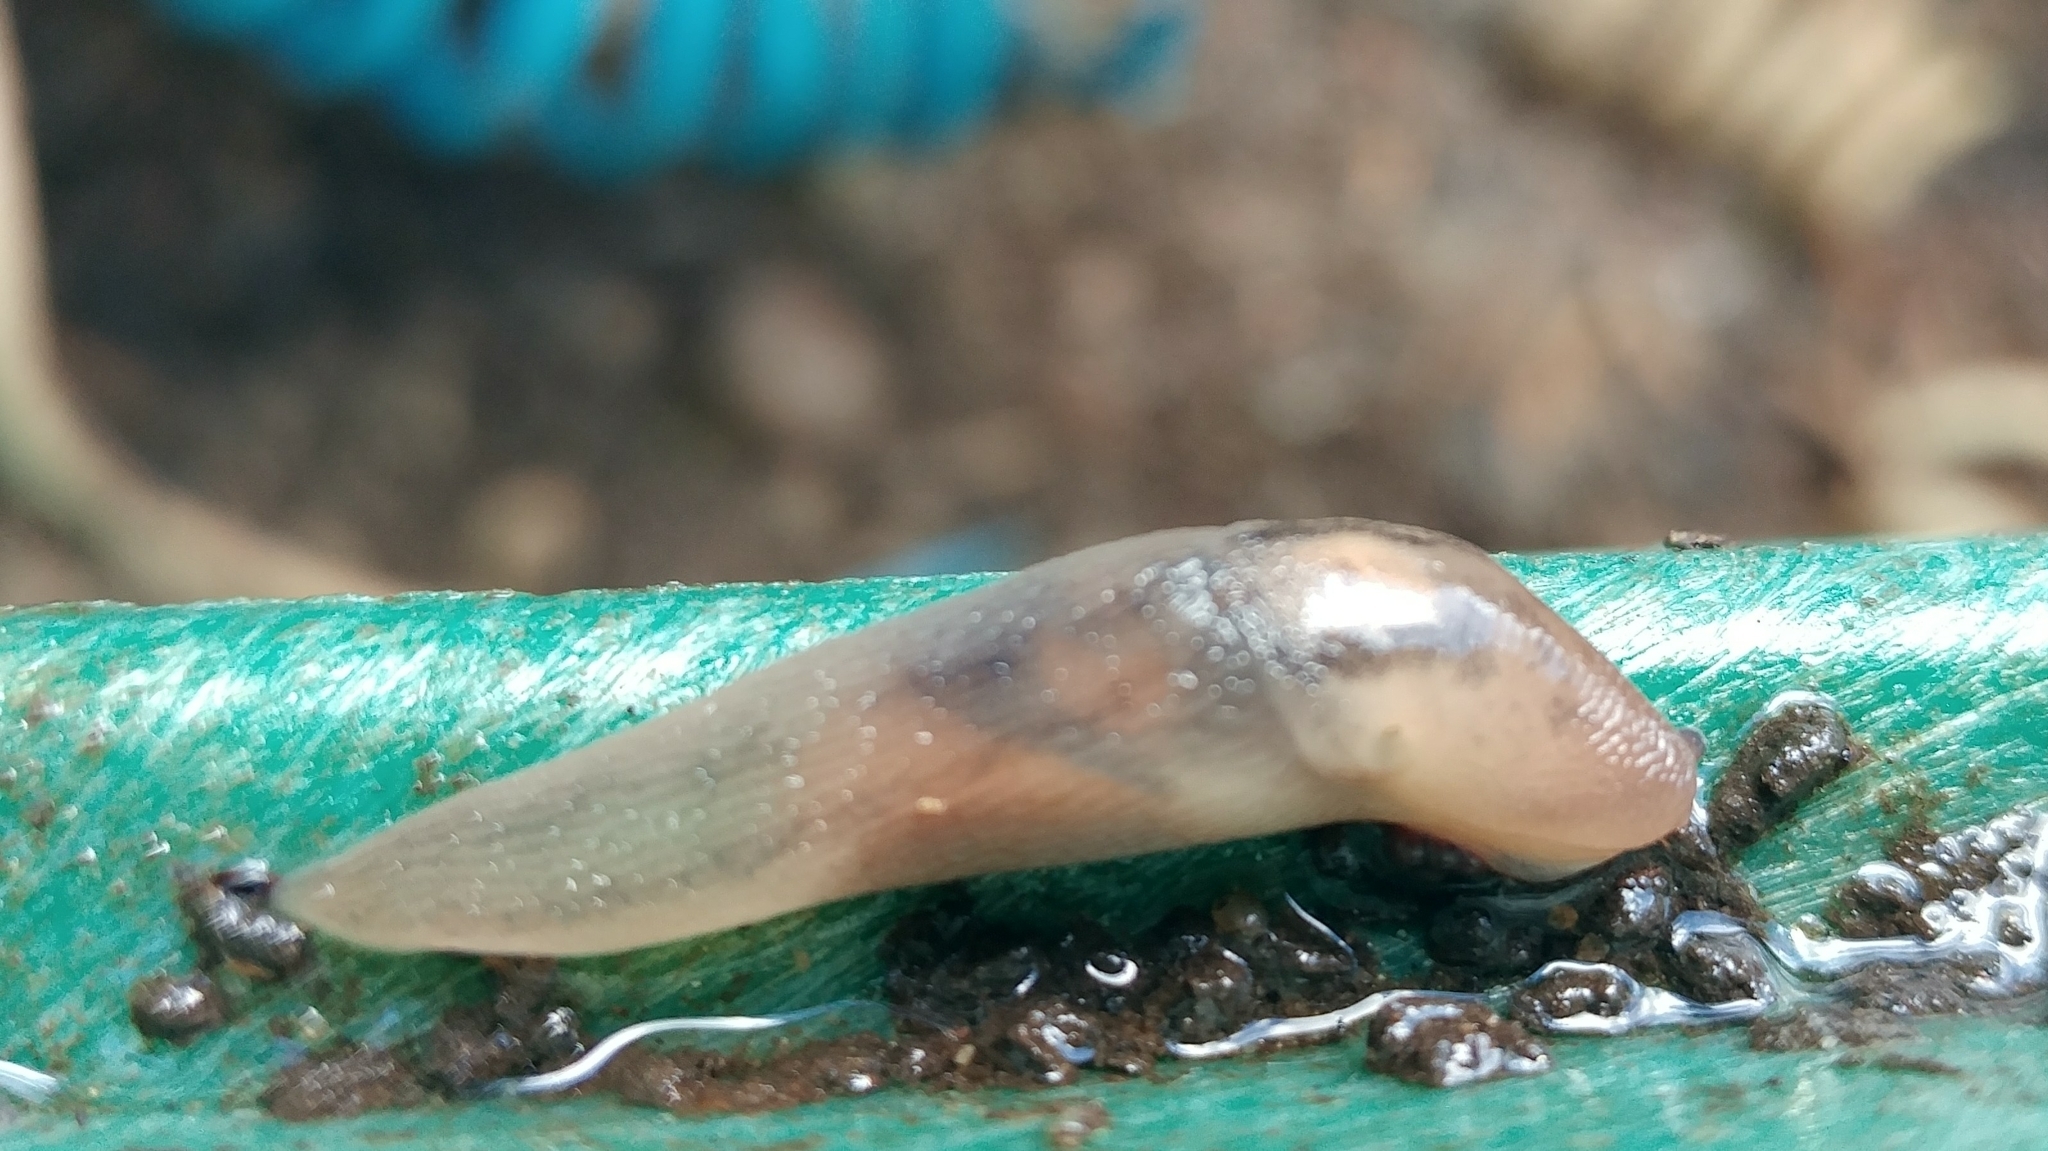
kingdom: Animalia
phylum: Mollusca
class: Gastropoda
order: Stylommatophora
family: Limacidae
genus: Ambigolimax
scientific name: Ambigolimax
